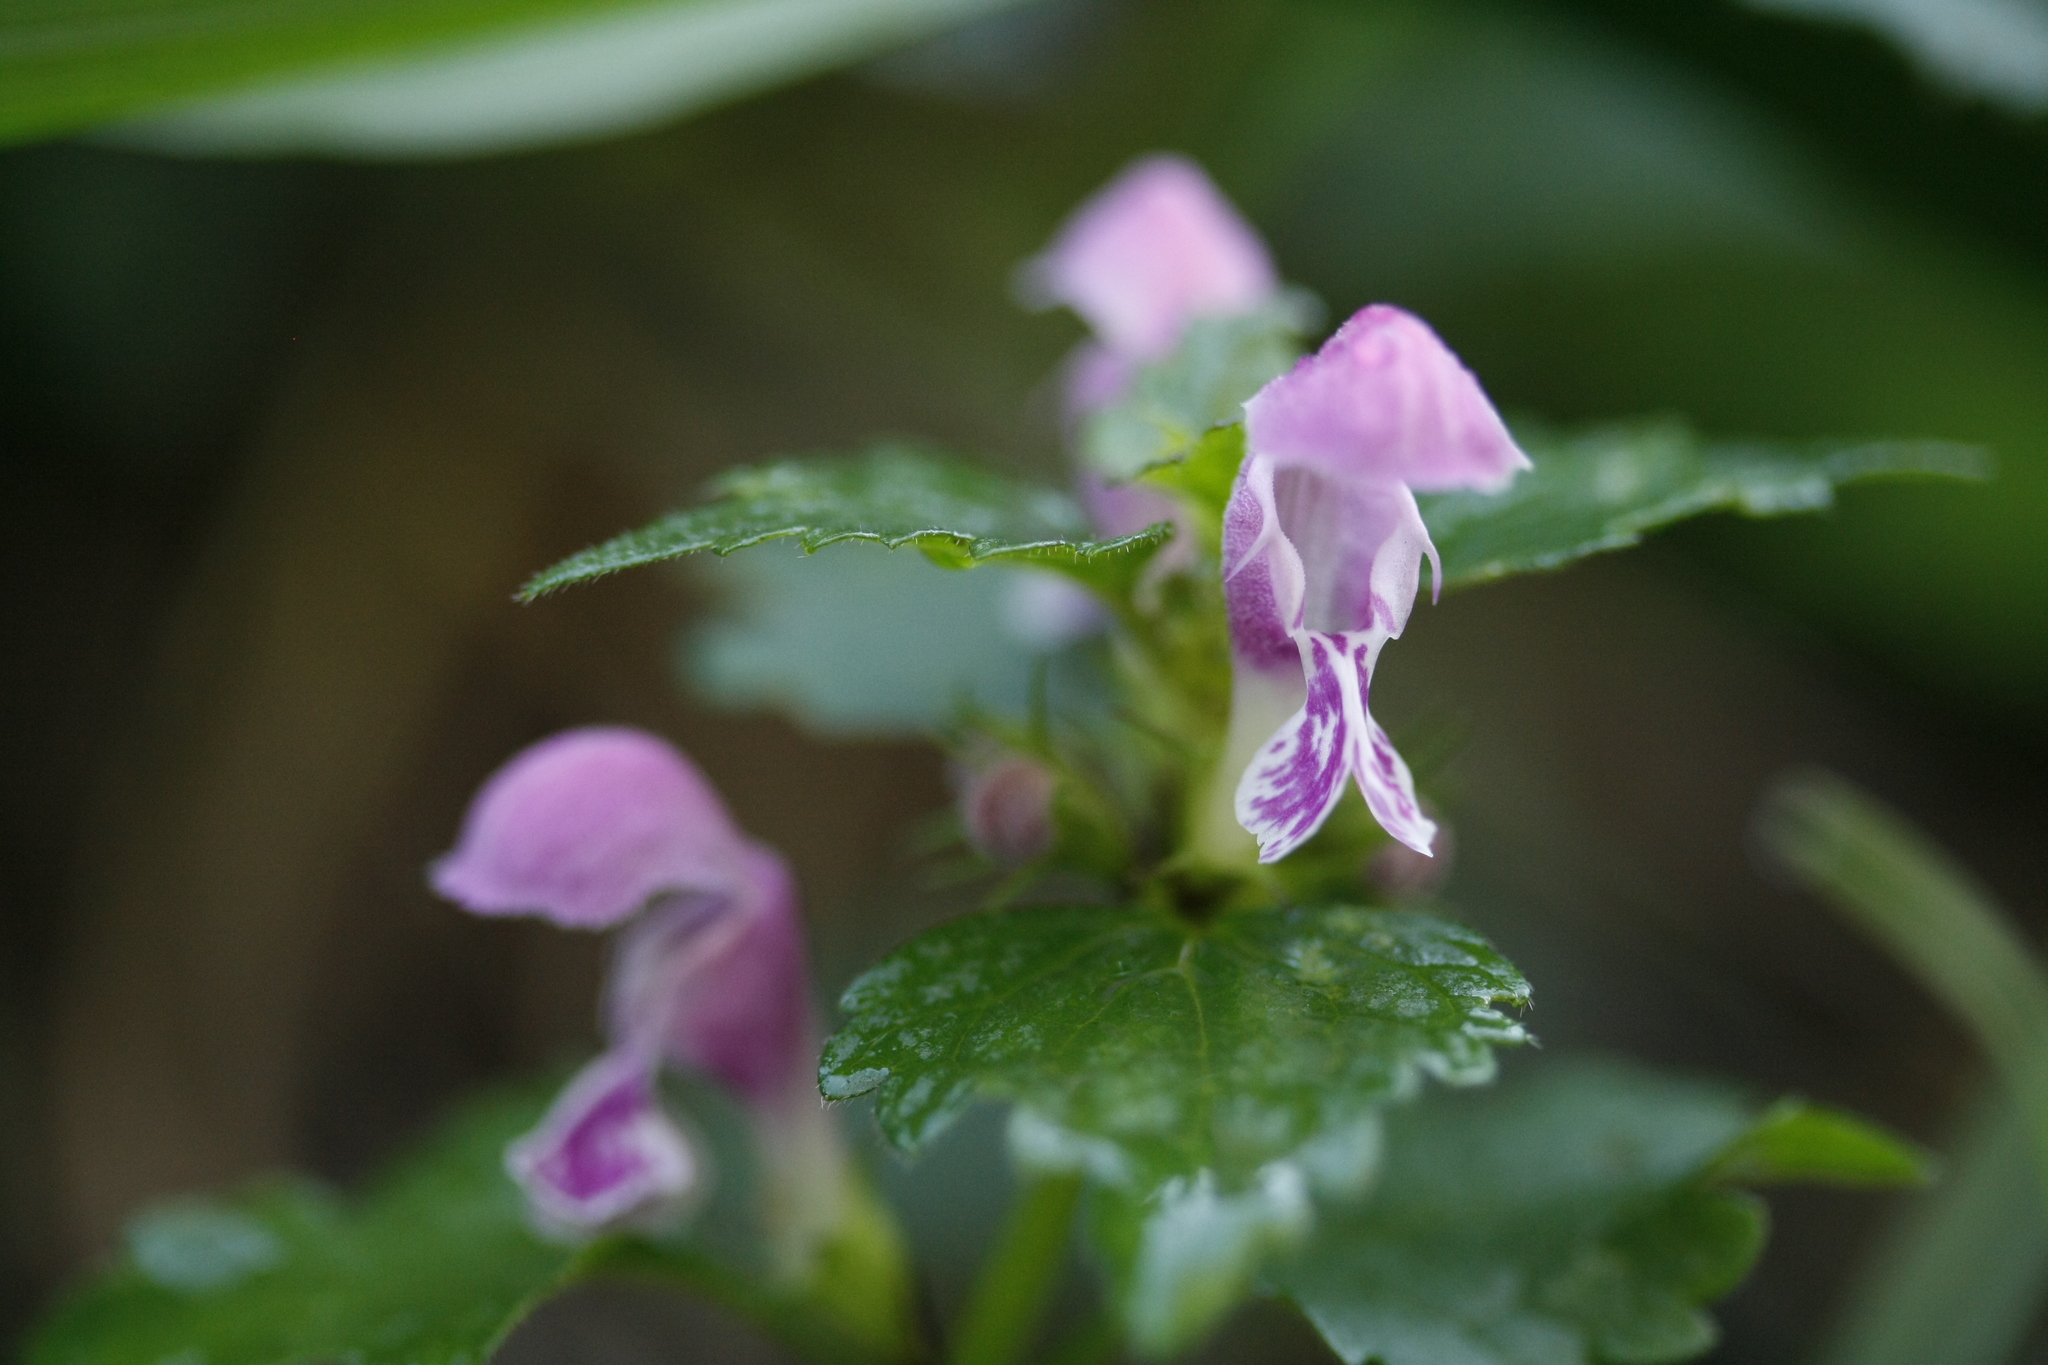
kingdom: Plantae
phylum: Tracheophyta
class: Magnoliopsida
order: Lamiales
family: Lamiaceae
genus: Lamium
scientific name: Lamium maculatum
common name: Spotted dead-nettle
